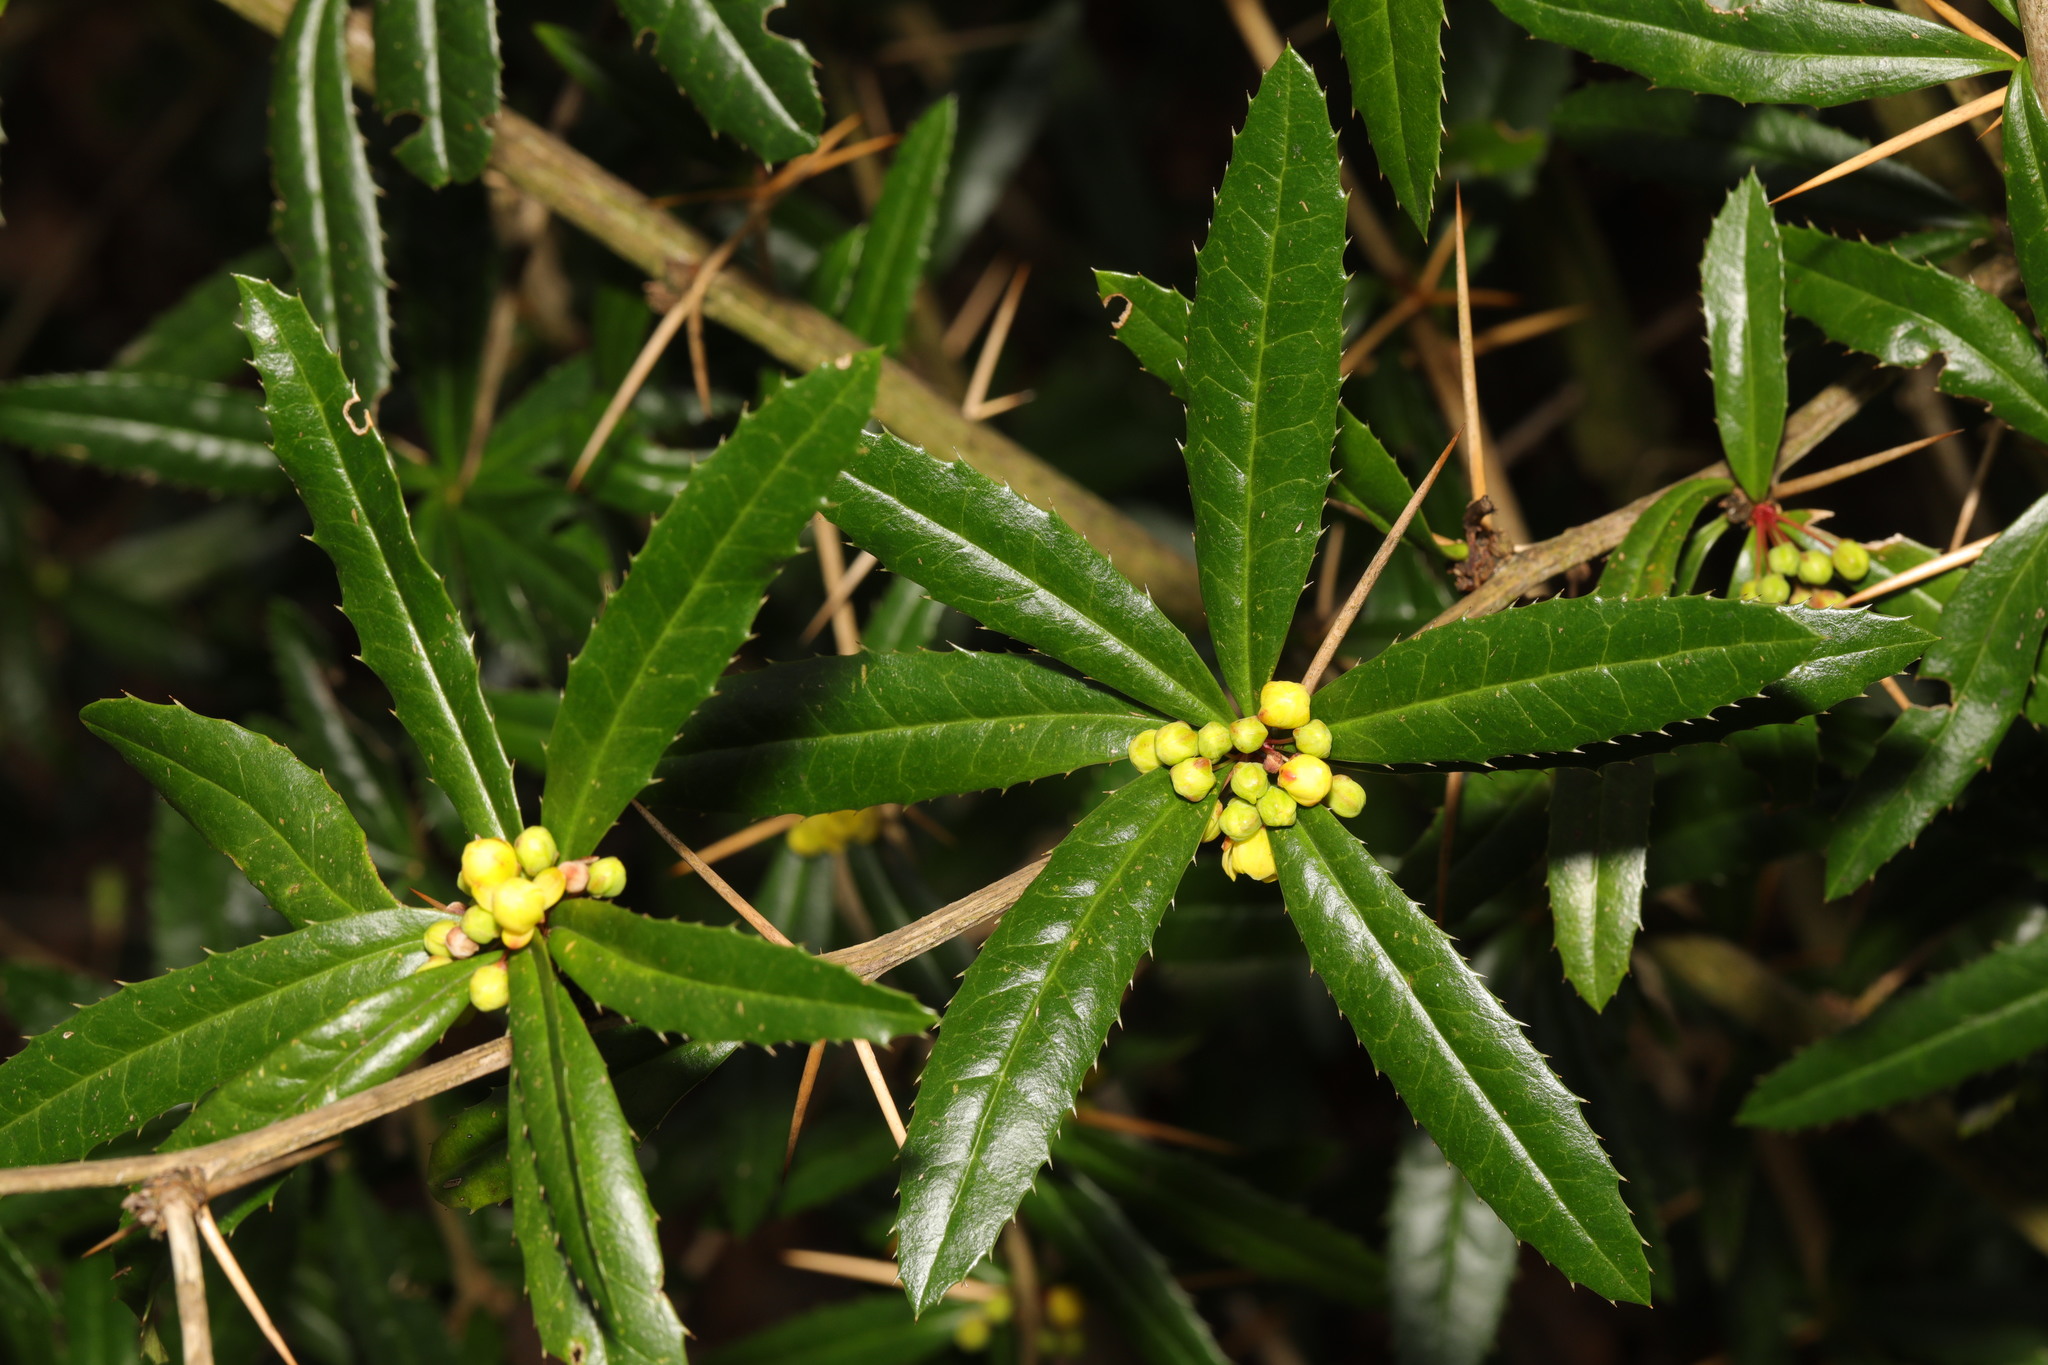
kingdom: Plantae
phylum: Tracheophyta
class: Magnoliopsida
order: Ranunculales
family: Berberidaceae
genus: Berberis
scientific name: Berberis julianae
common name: Wintergreen barberry
